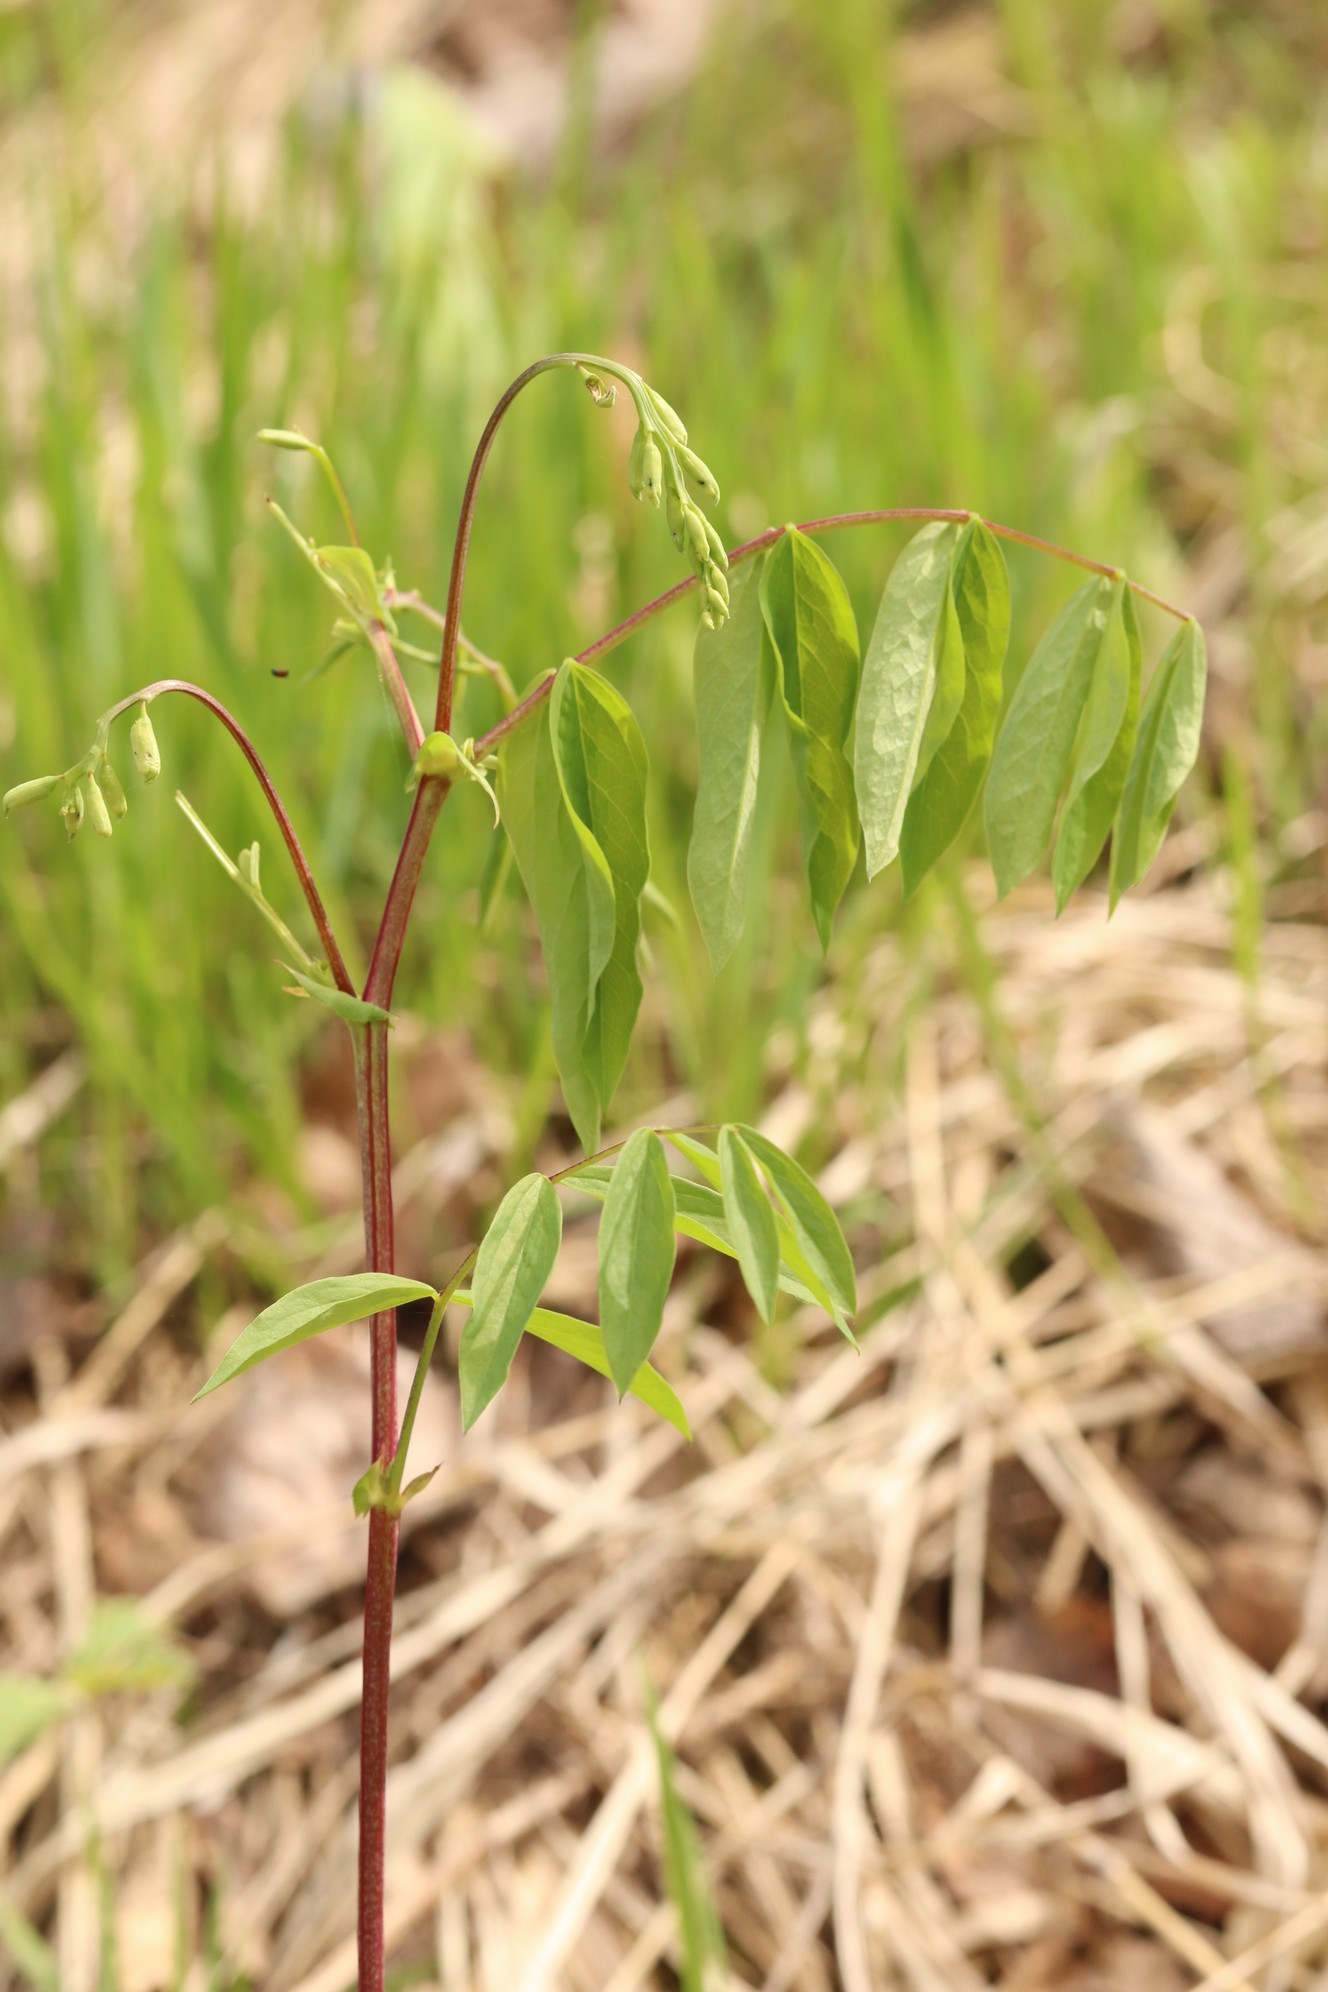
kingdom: Plantae
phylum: Tracheophyta
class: Magnoliopsida
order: Fabales
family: Fabaceae
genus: Lathyrus
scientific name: Lathyrus gmelinii
